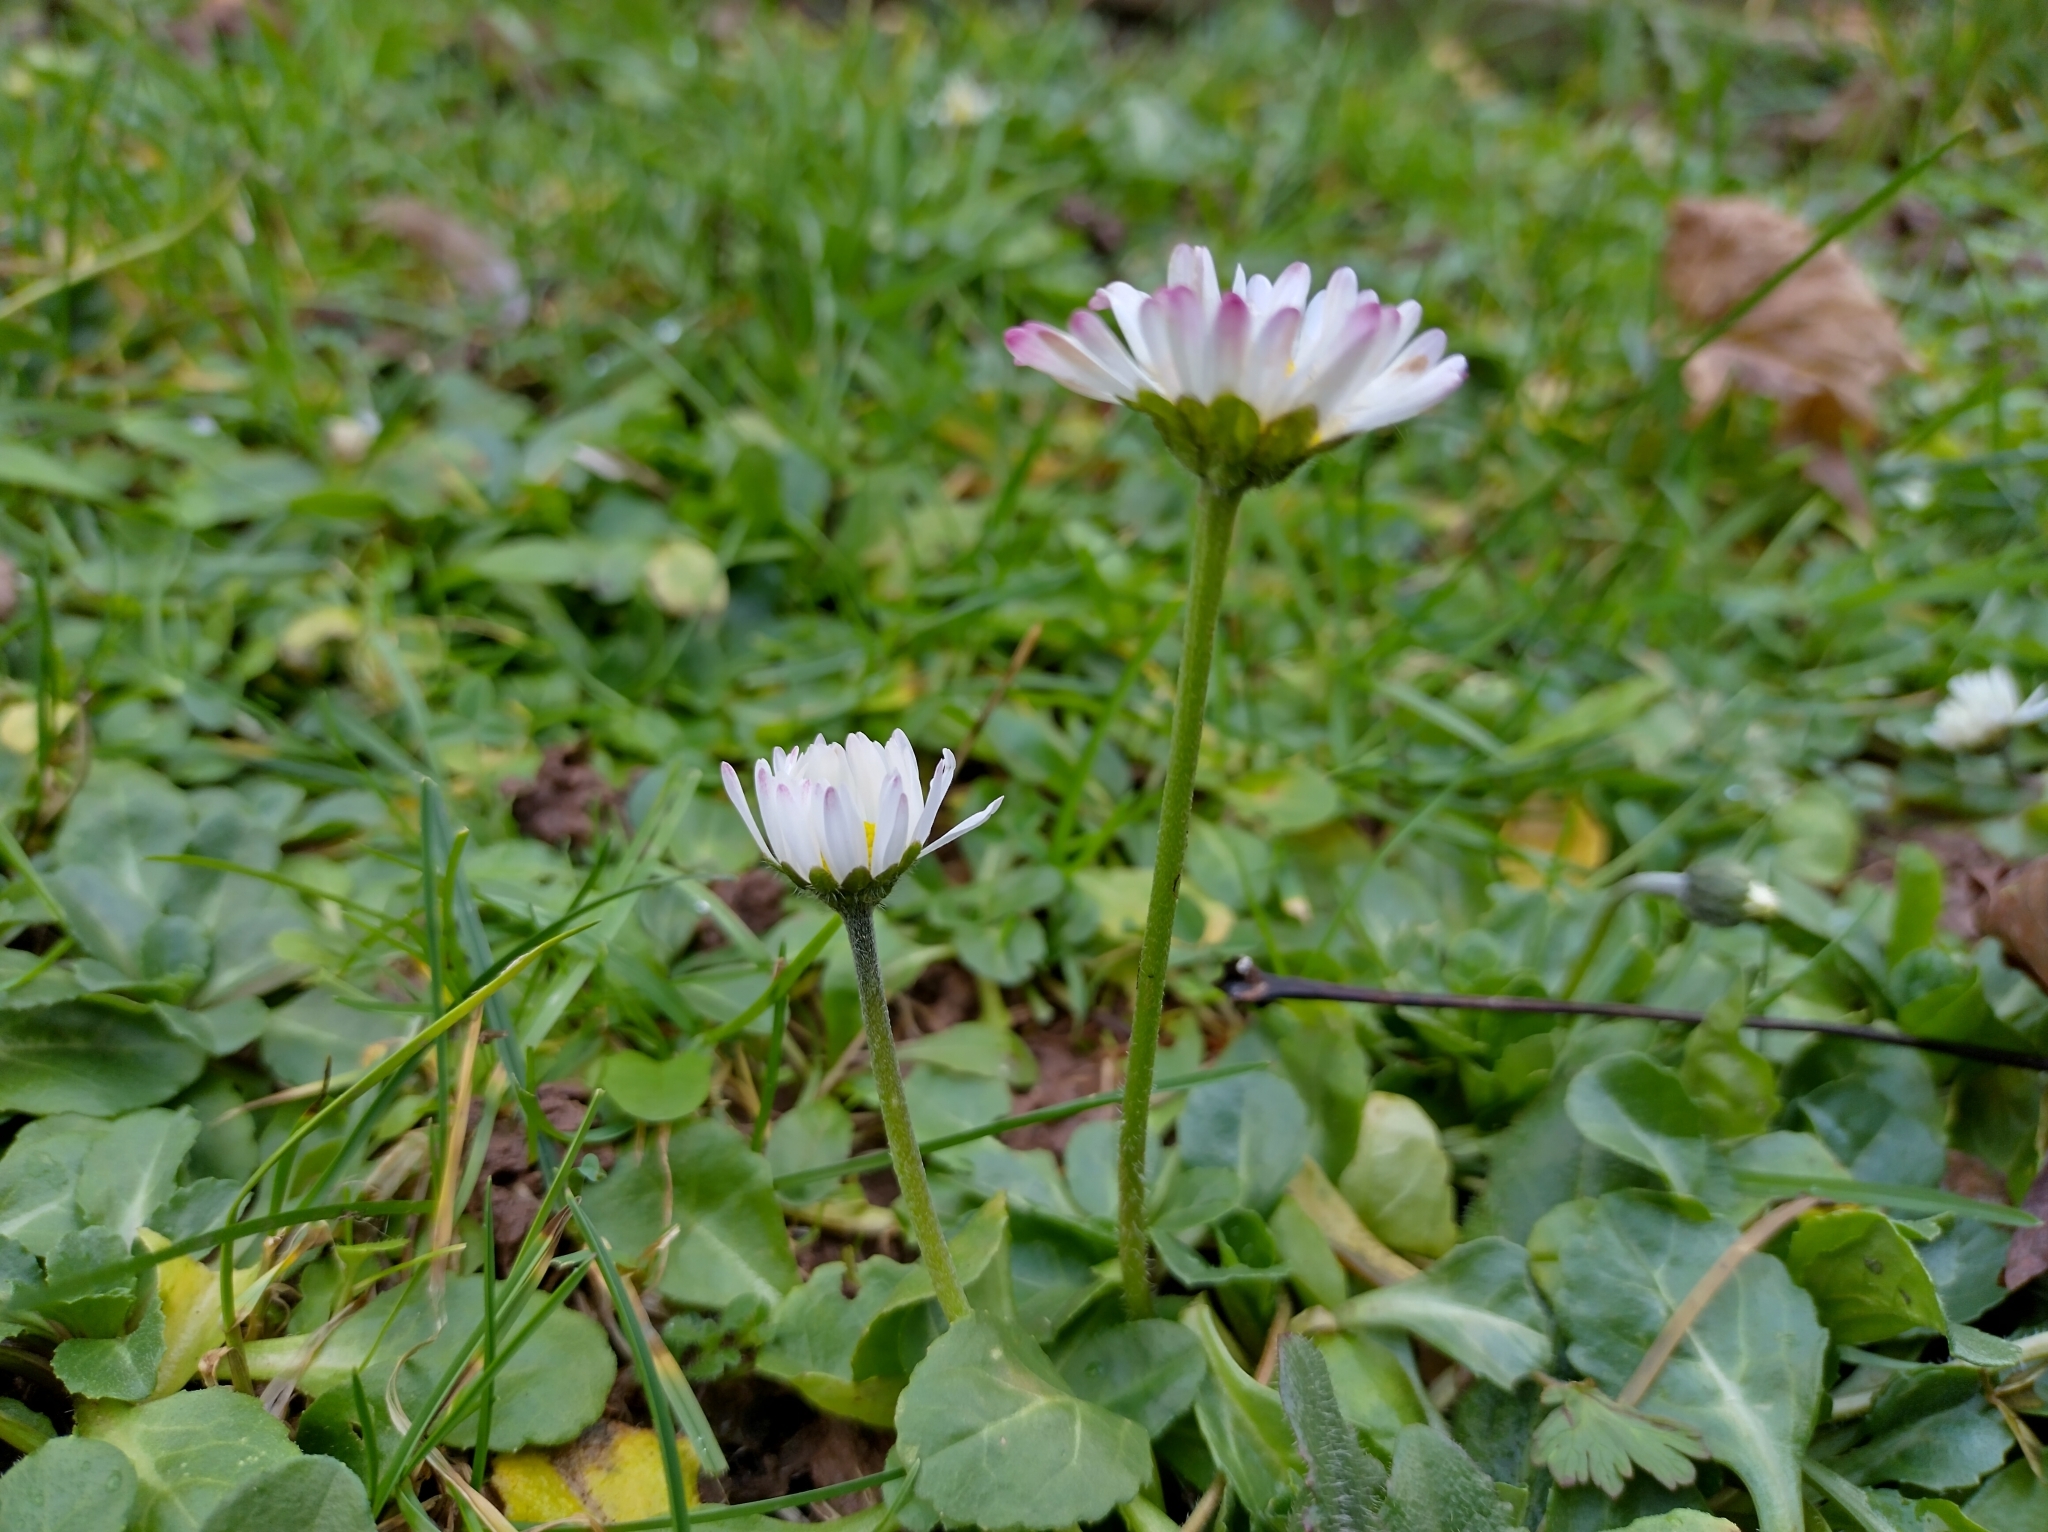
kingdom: Plantae
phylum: Tracheophyta
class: Magnoliopsida
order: Asterales
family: Asteraceae
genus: Bellis
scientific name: Bellis perennis
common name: Lawndaisy
